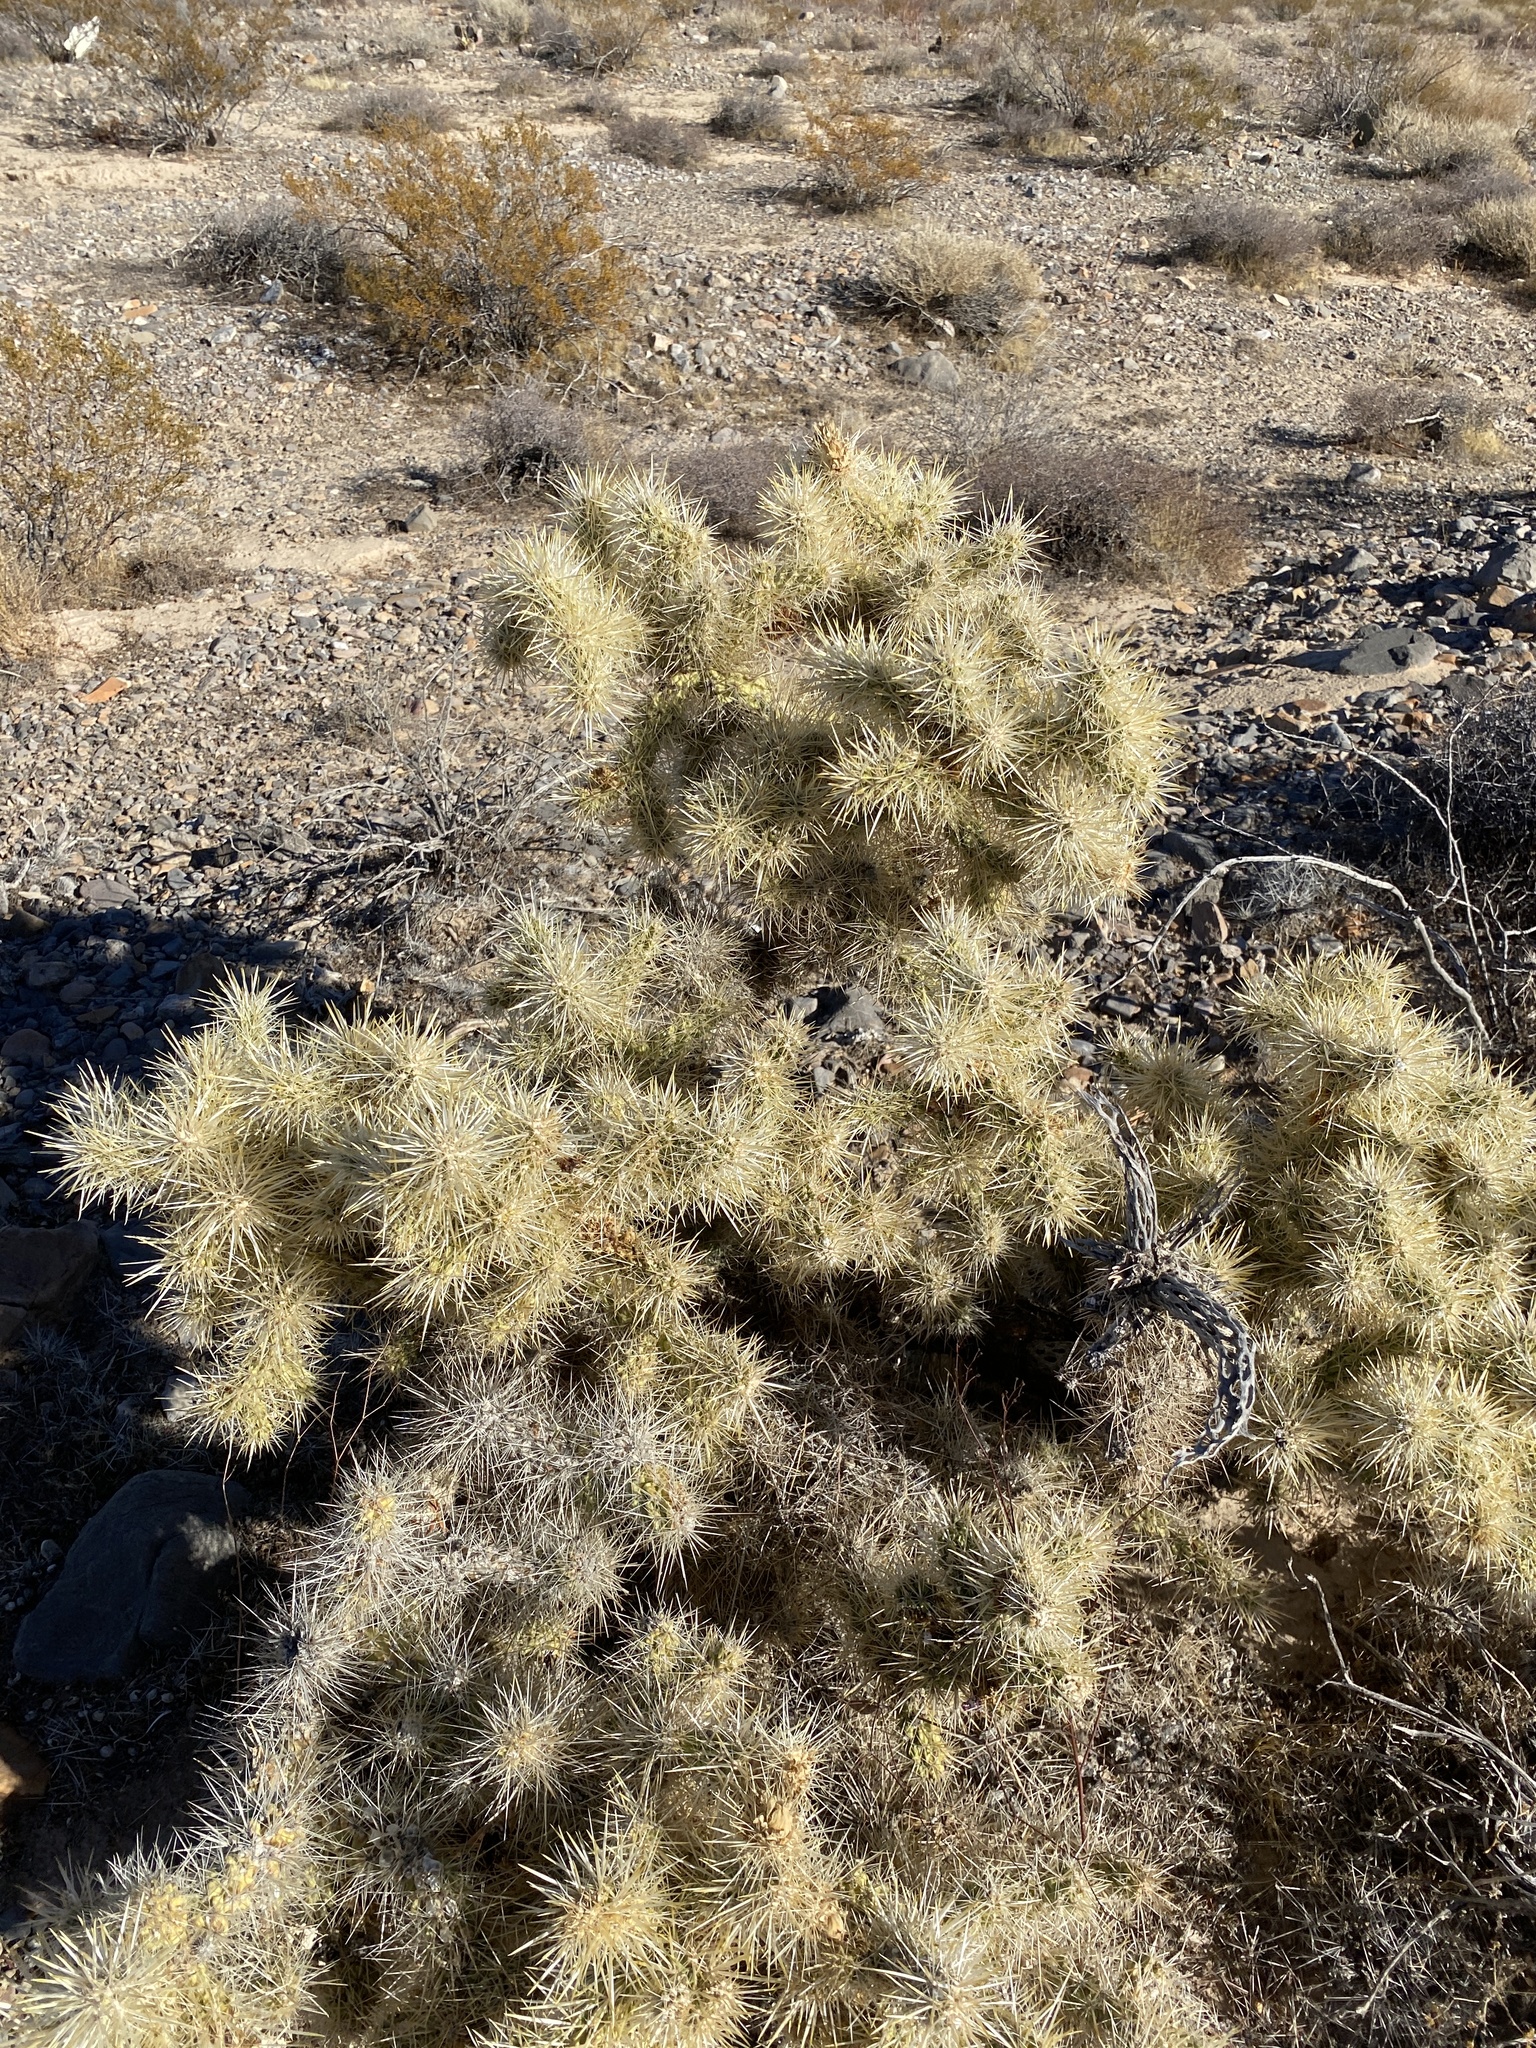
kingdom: Plantae
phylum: Tracheophyta
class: Magnoliopsida
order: Caryophyllales
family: Cactaceae
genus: Cylindropuntia
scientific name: Cylindropuntia acanthocarpa
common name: Buckhorn cholla
